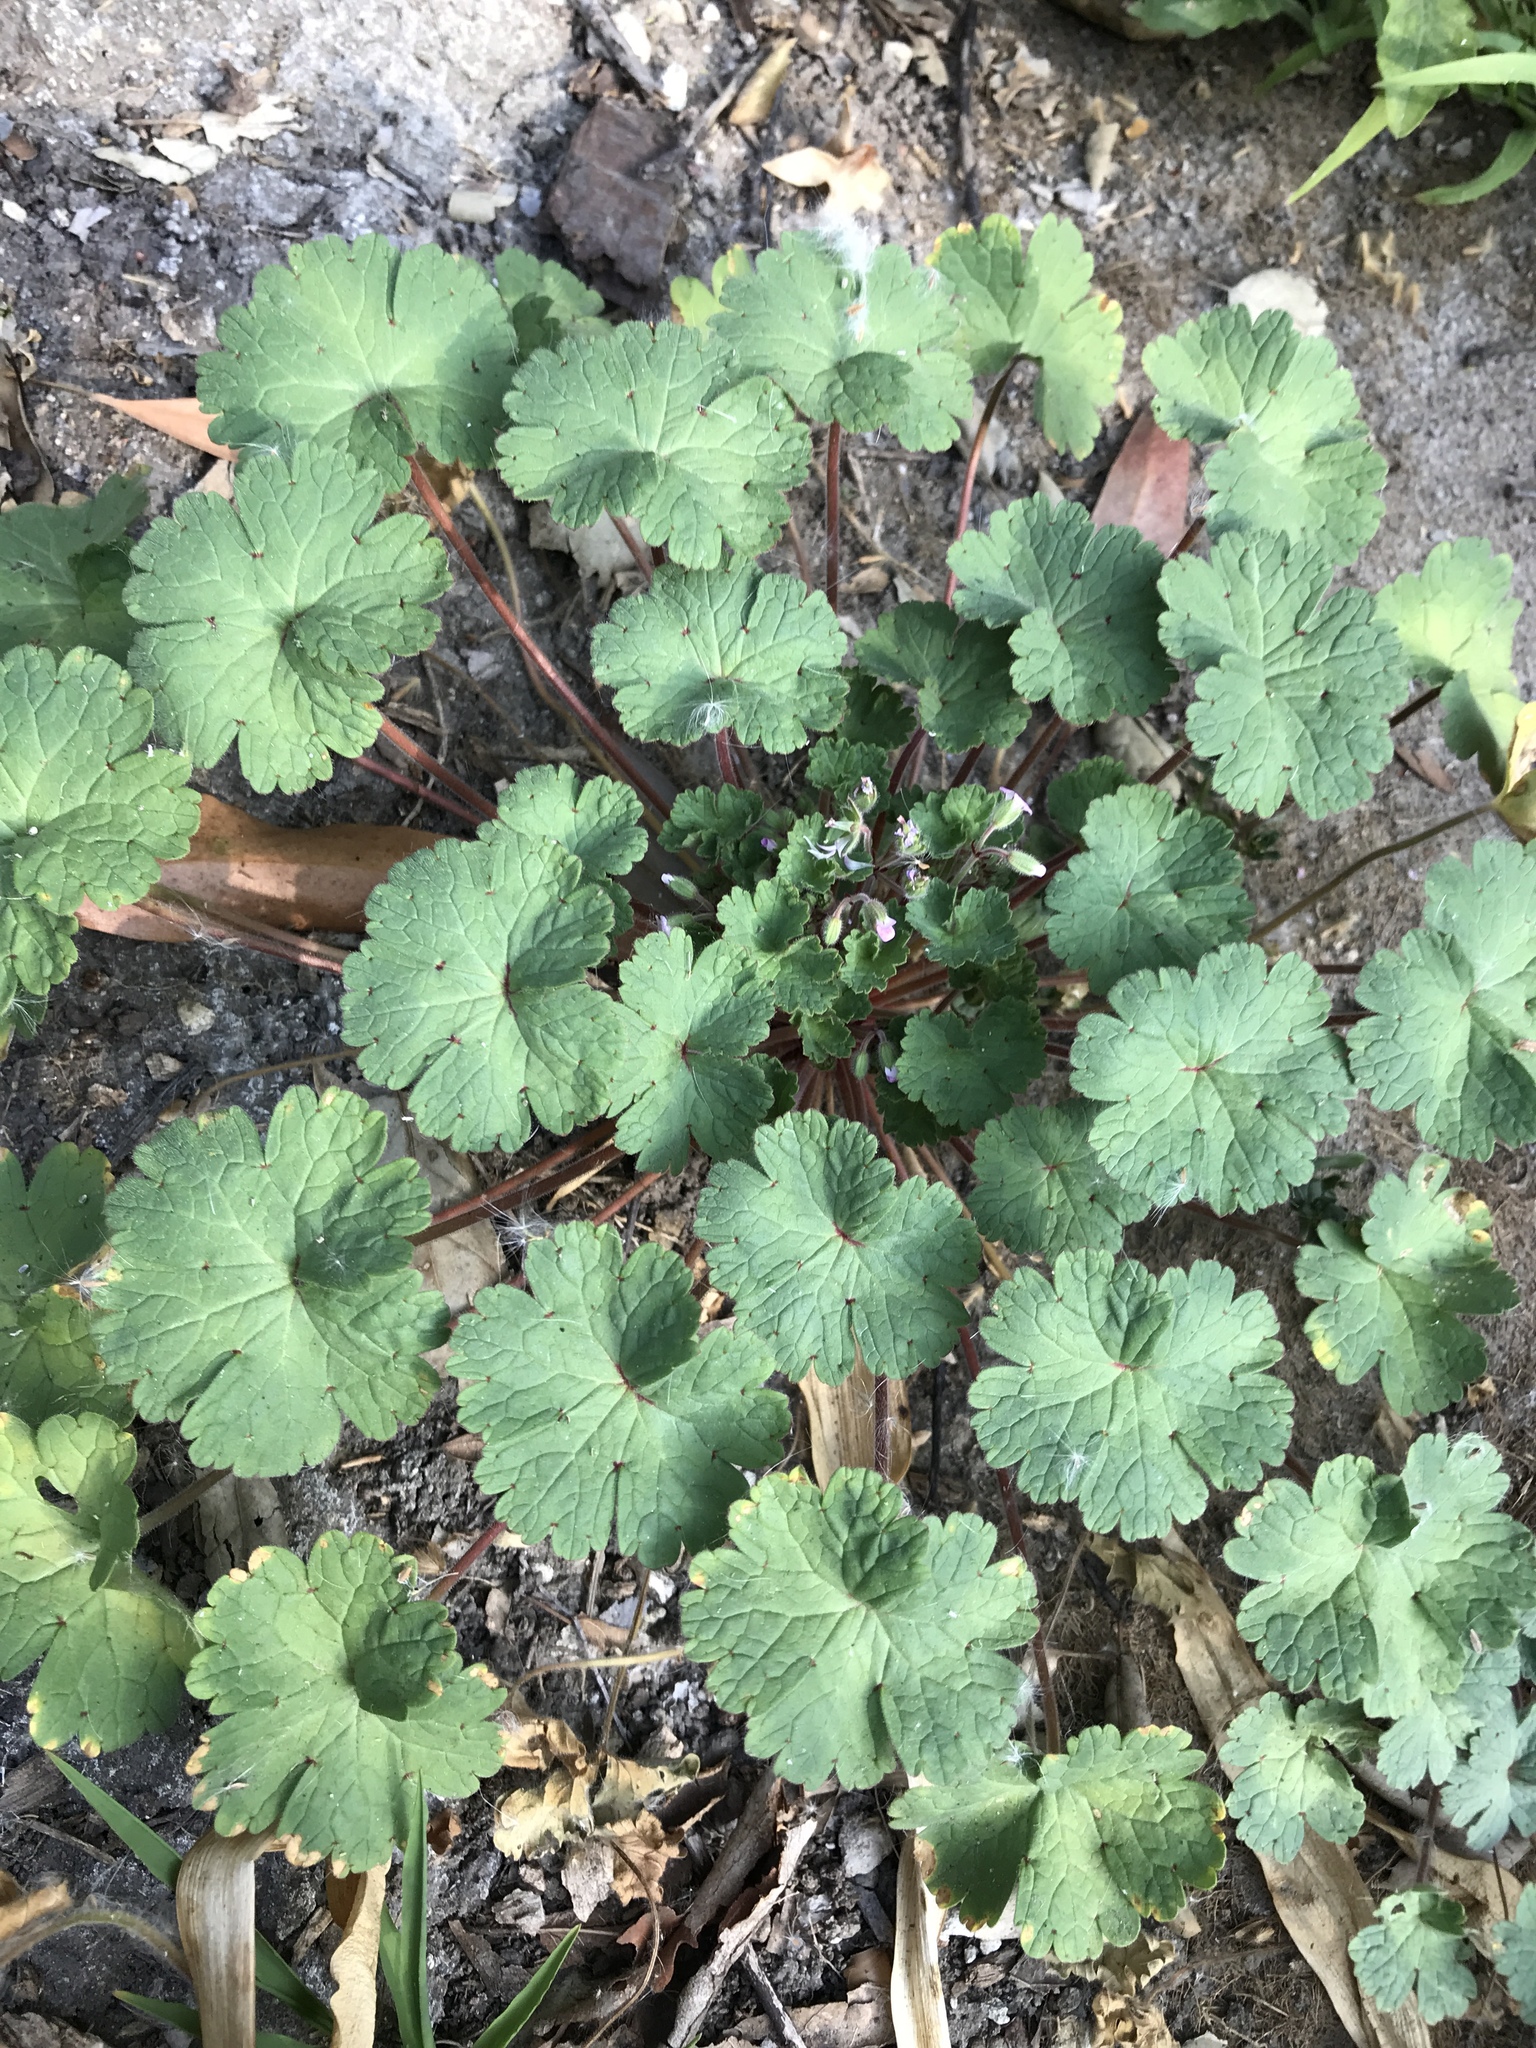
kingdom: Plantae
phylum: Tracheophyta
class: Magnoliopsida
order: Geraniales
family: Geraniaceae
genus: Geranium
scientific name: Geranium rotundifolium
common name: Round-leaved crane's-bill
